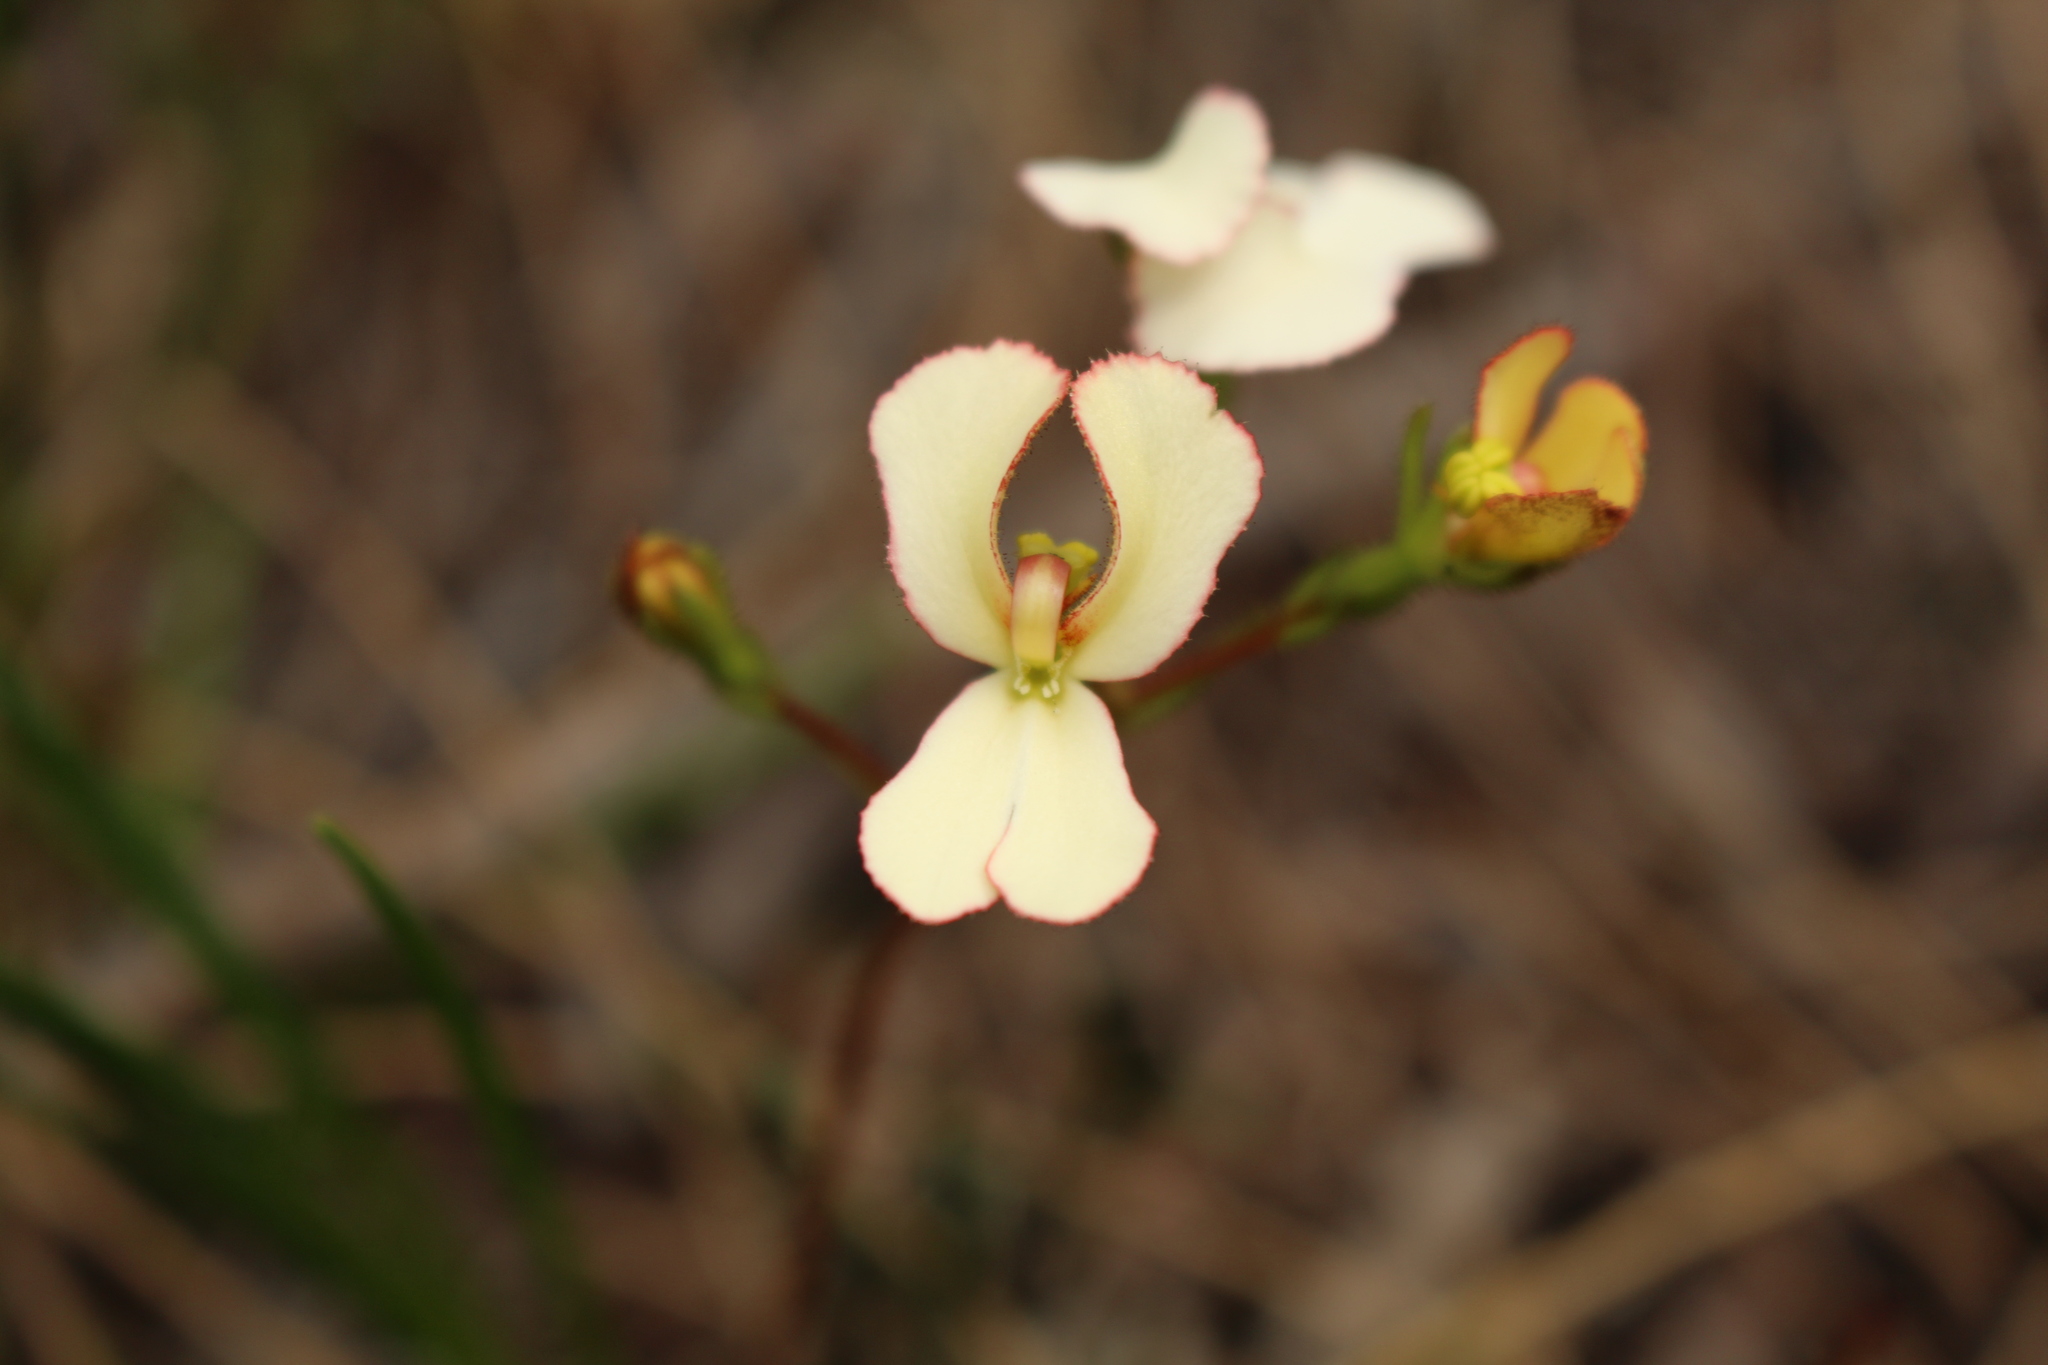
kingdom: Plantae
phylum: Tracheophyta
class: Magnoliopsida
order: Asterales
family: Stylidiaceae
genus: Stylidium
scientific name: Stylidium schoenoides
